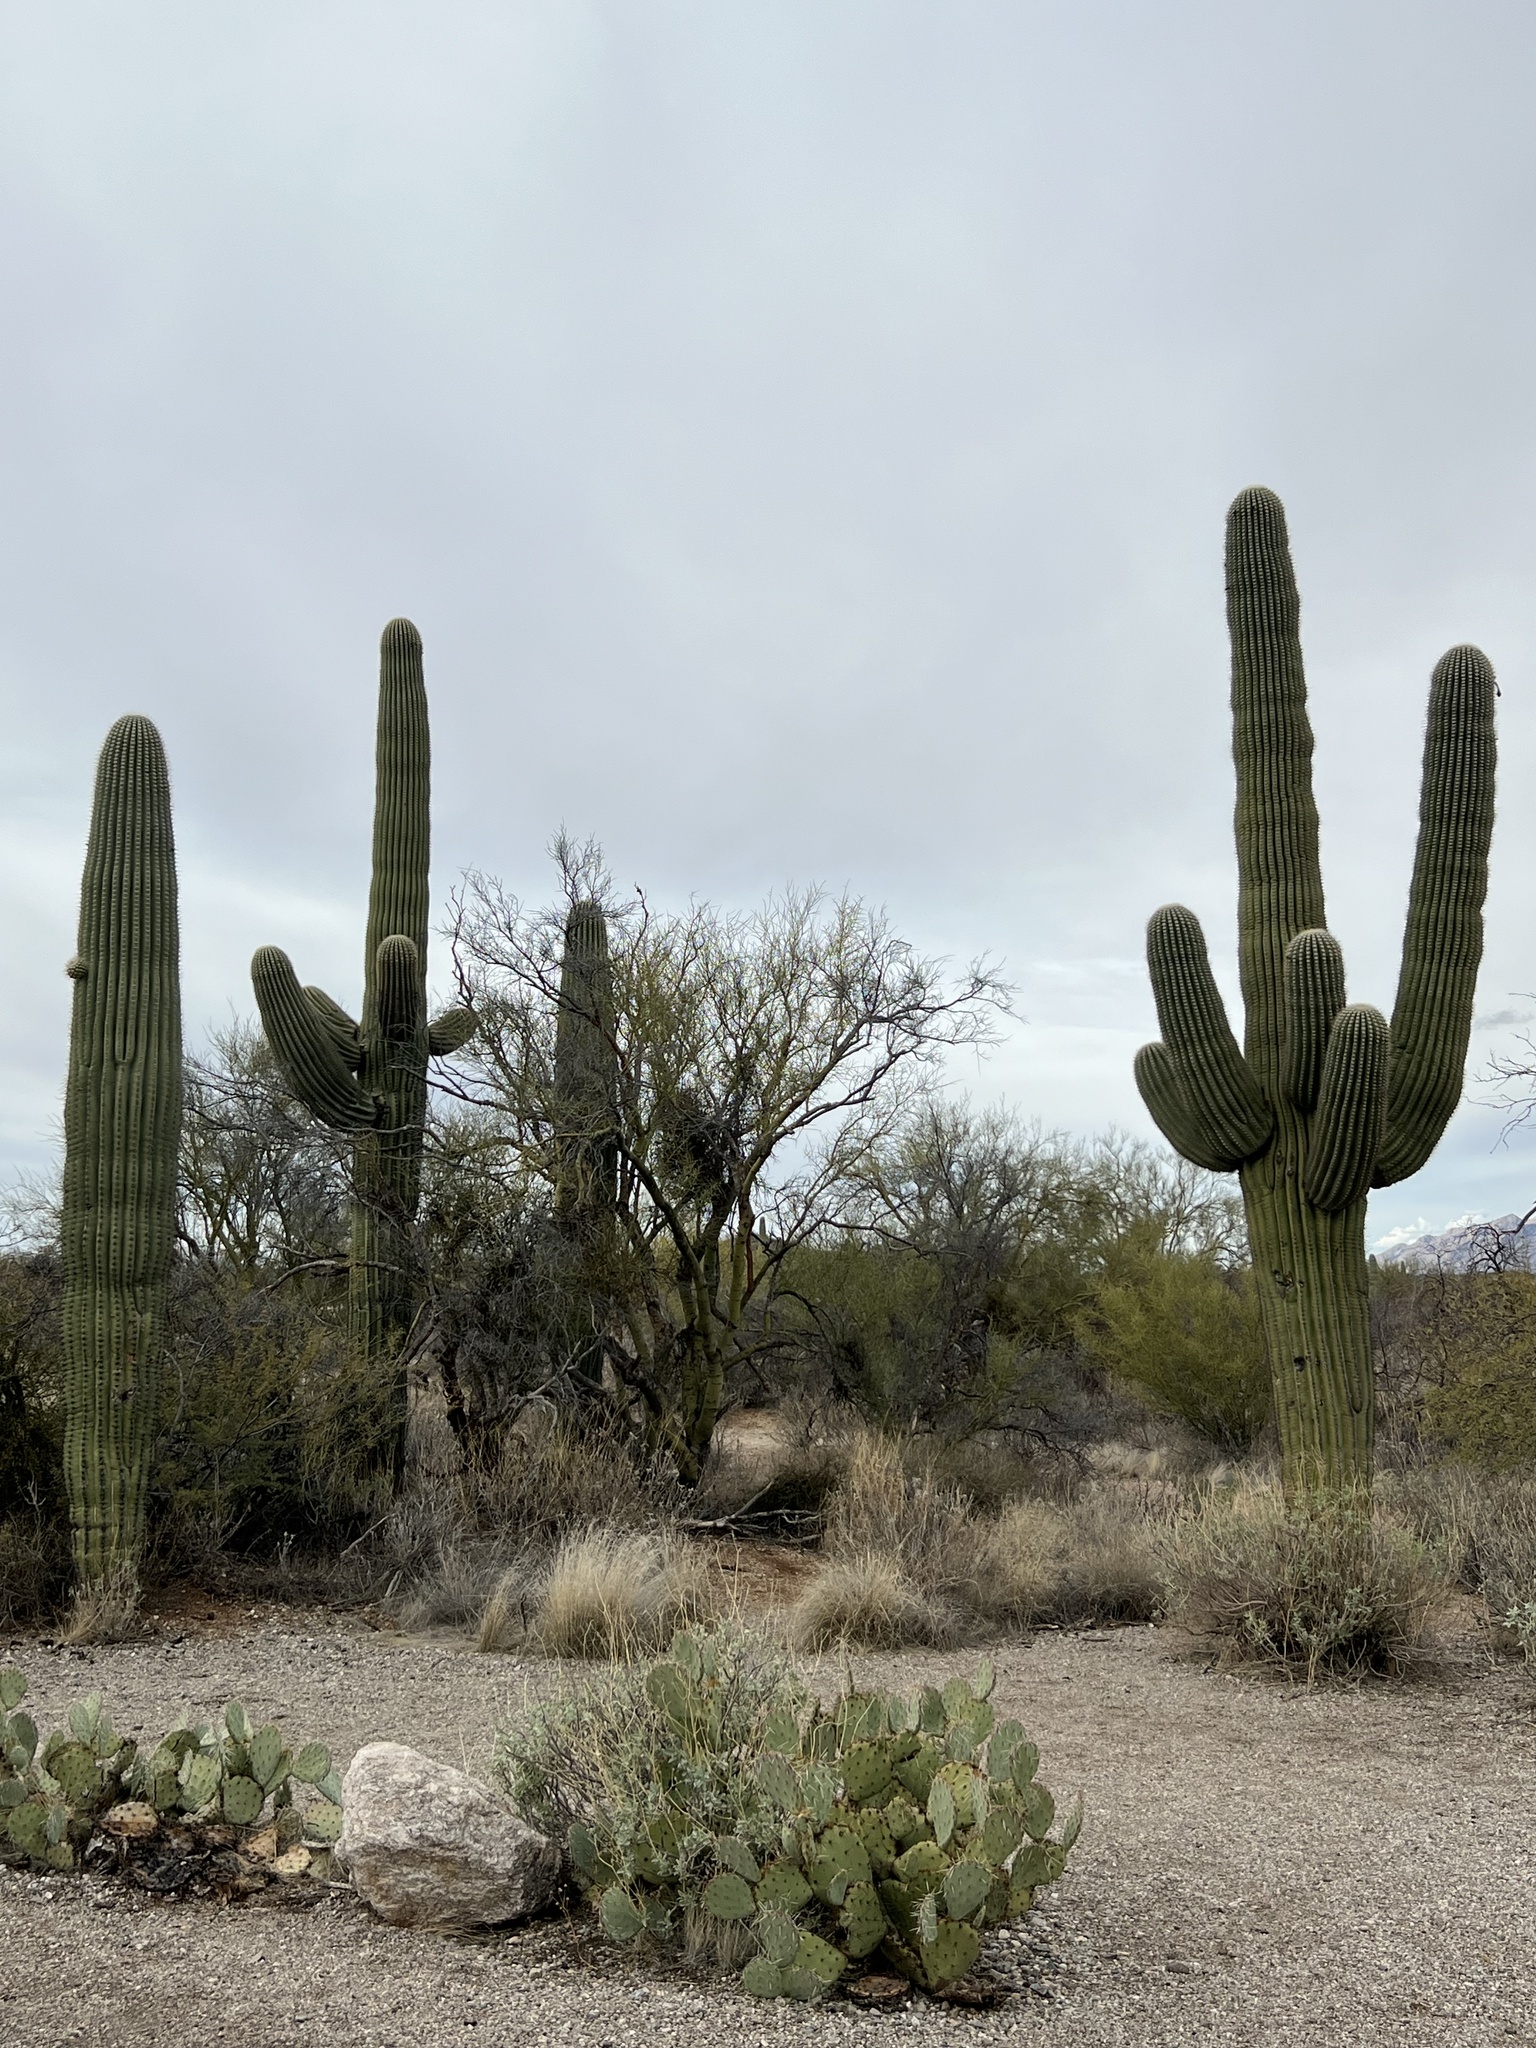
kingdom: Plantae
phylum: Tracheophyta
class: Magnoliopsida
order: Caryophyllales
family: Cactaceae
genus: Carnegiea
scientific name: Carnegiea gigantea
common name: Saguaro
